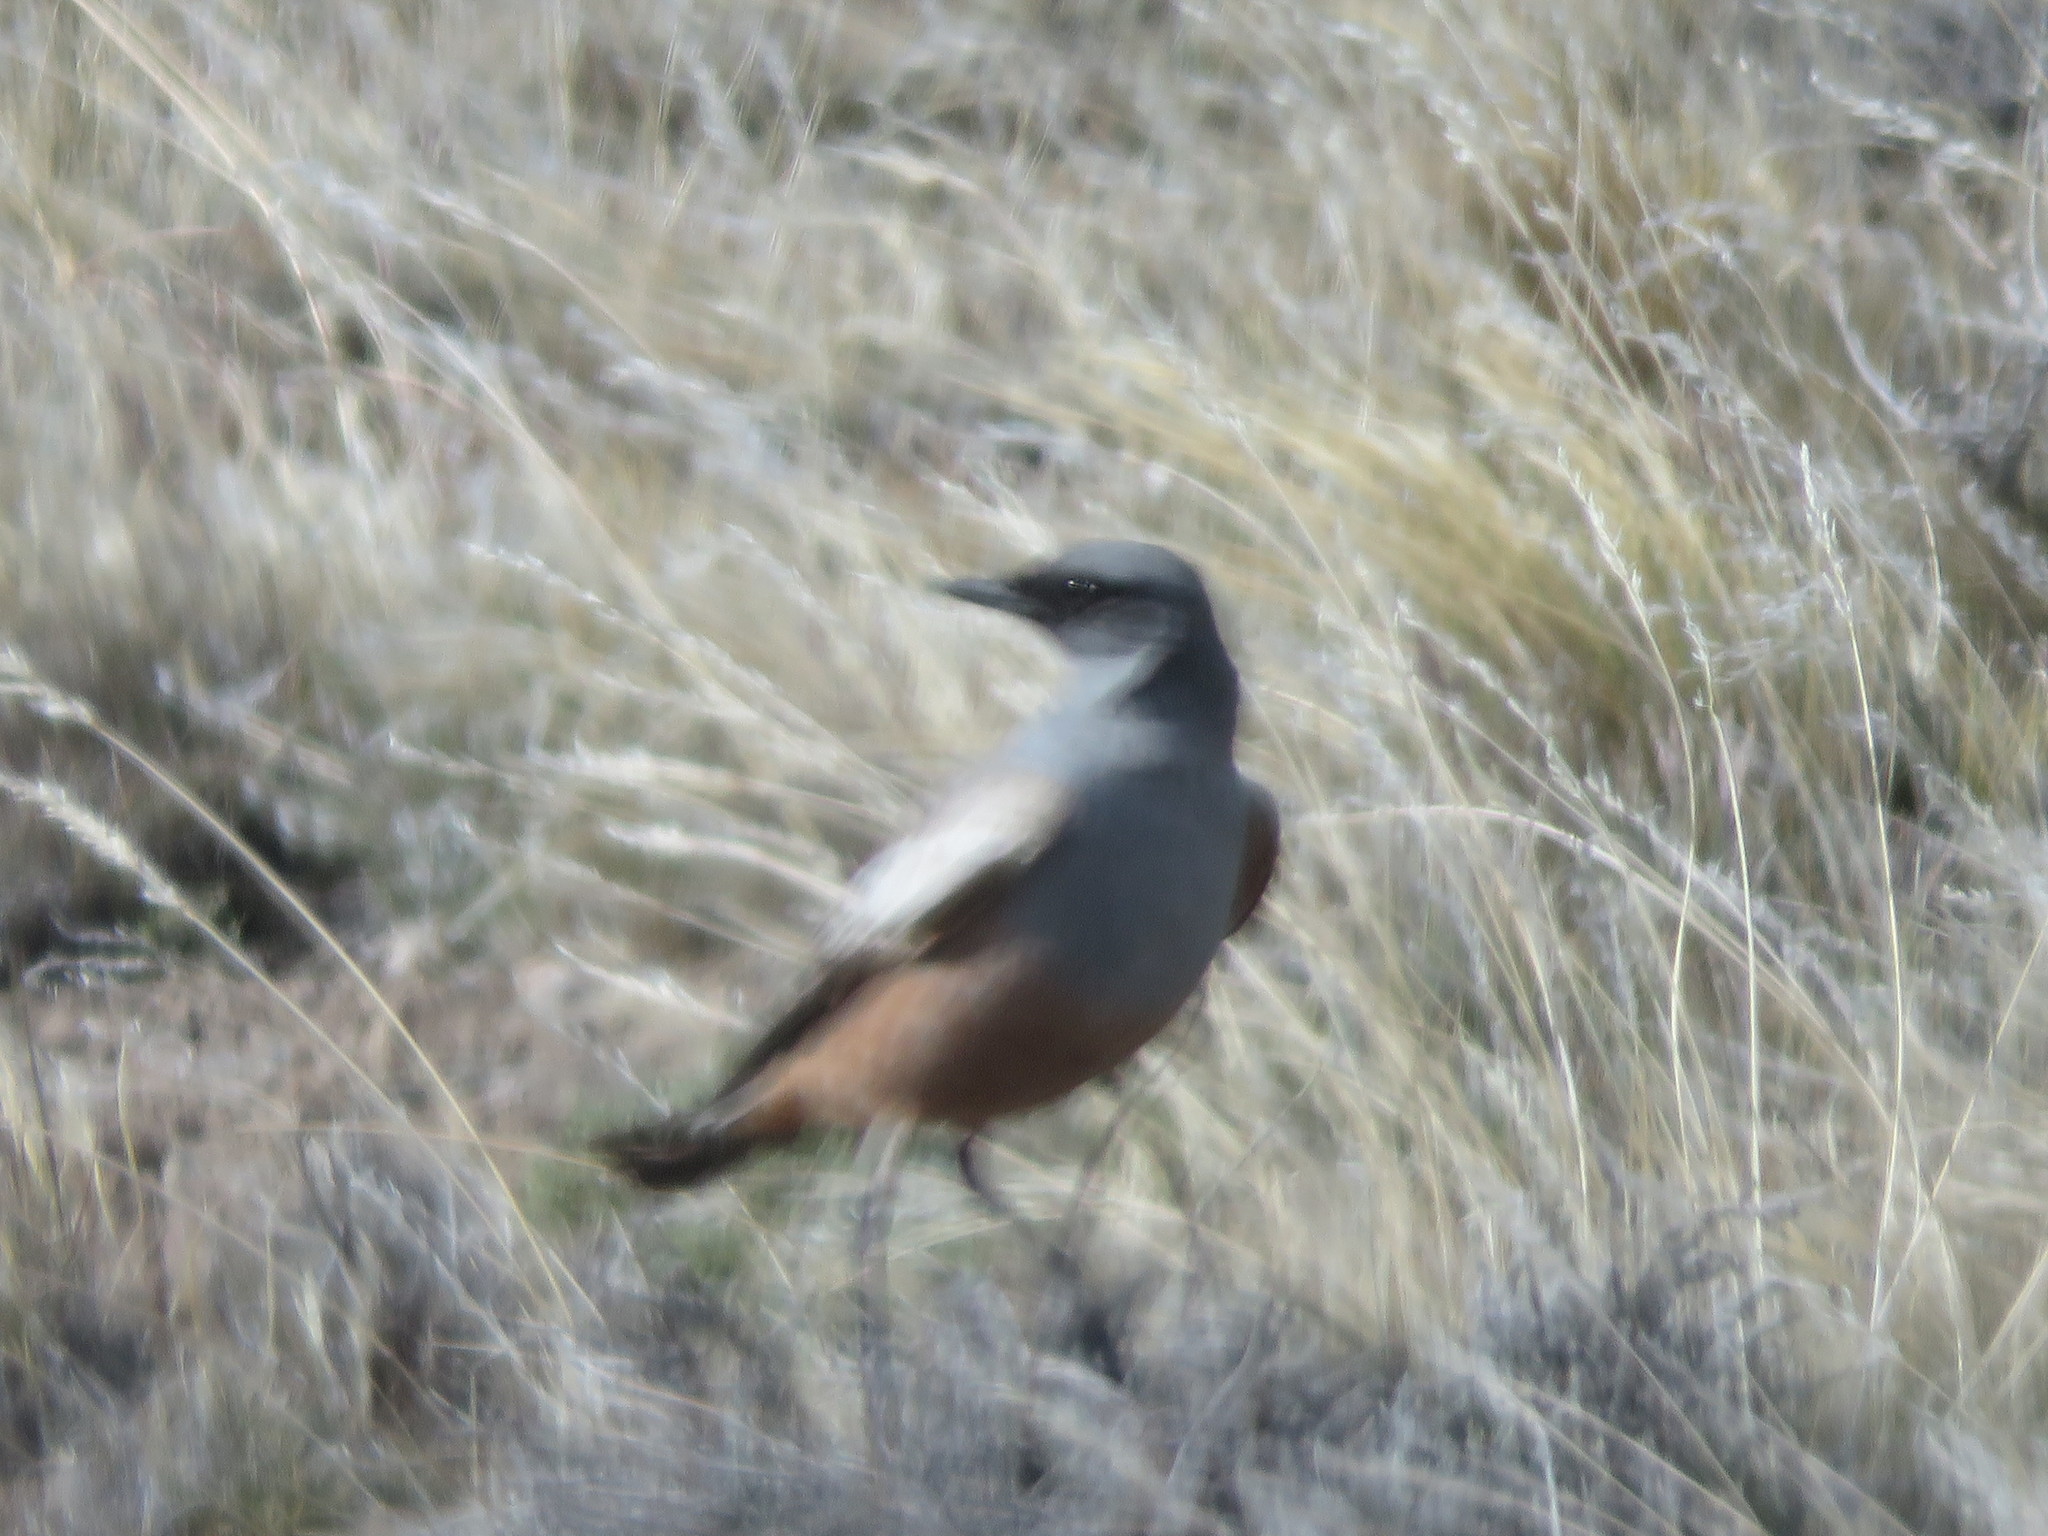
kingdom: Animalia
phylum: Chordata
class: Aves
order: Passeriformes
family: Tyrannidae
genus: Neoxolmis
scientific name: Neoxolmis rufiventris
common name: Chocolate-vented tyrant
